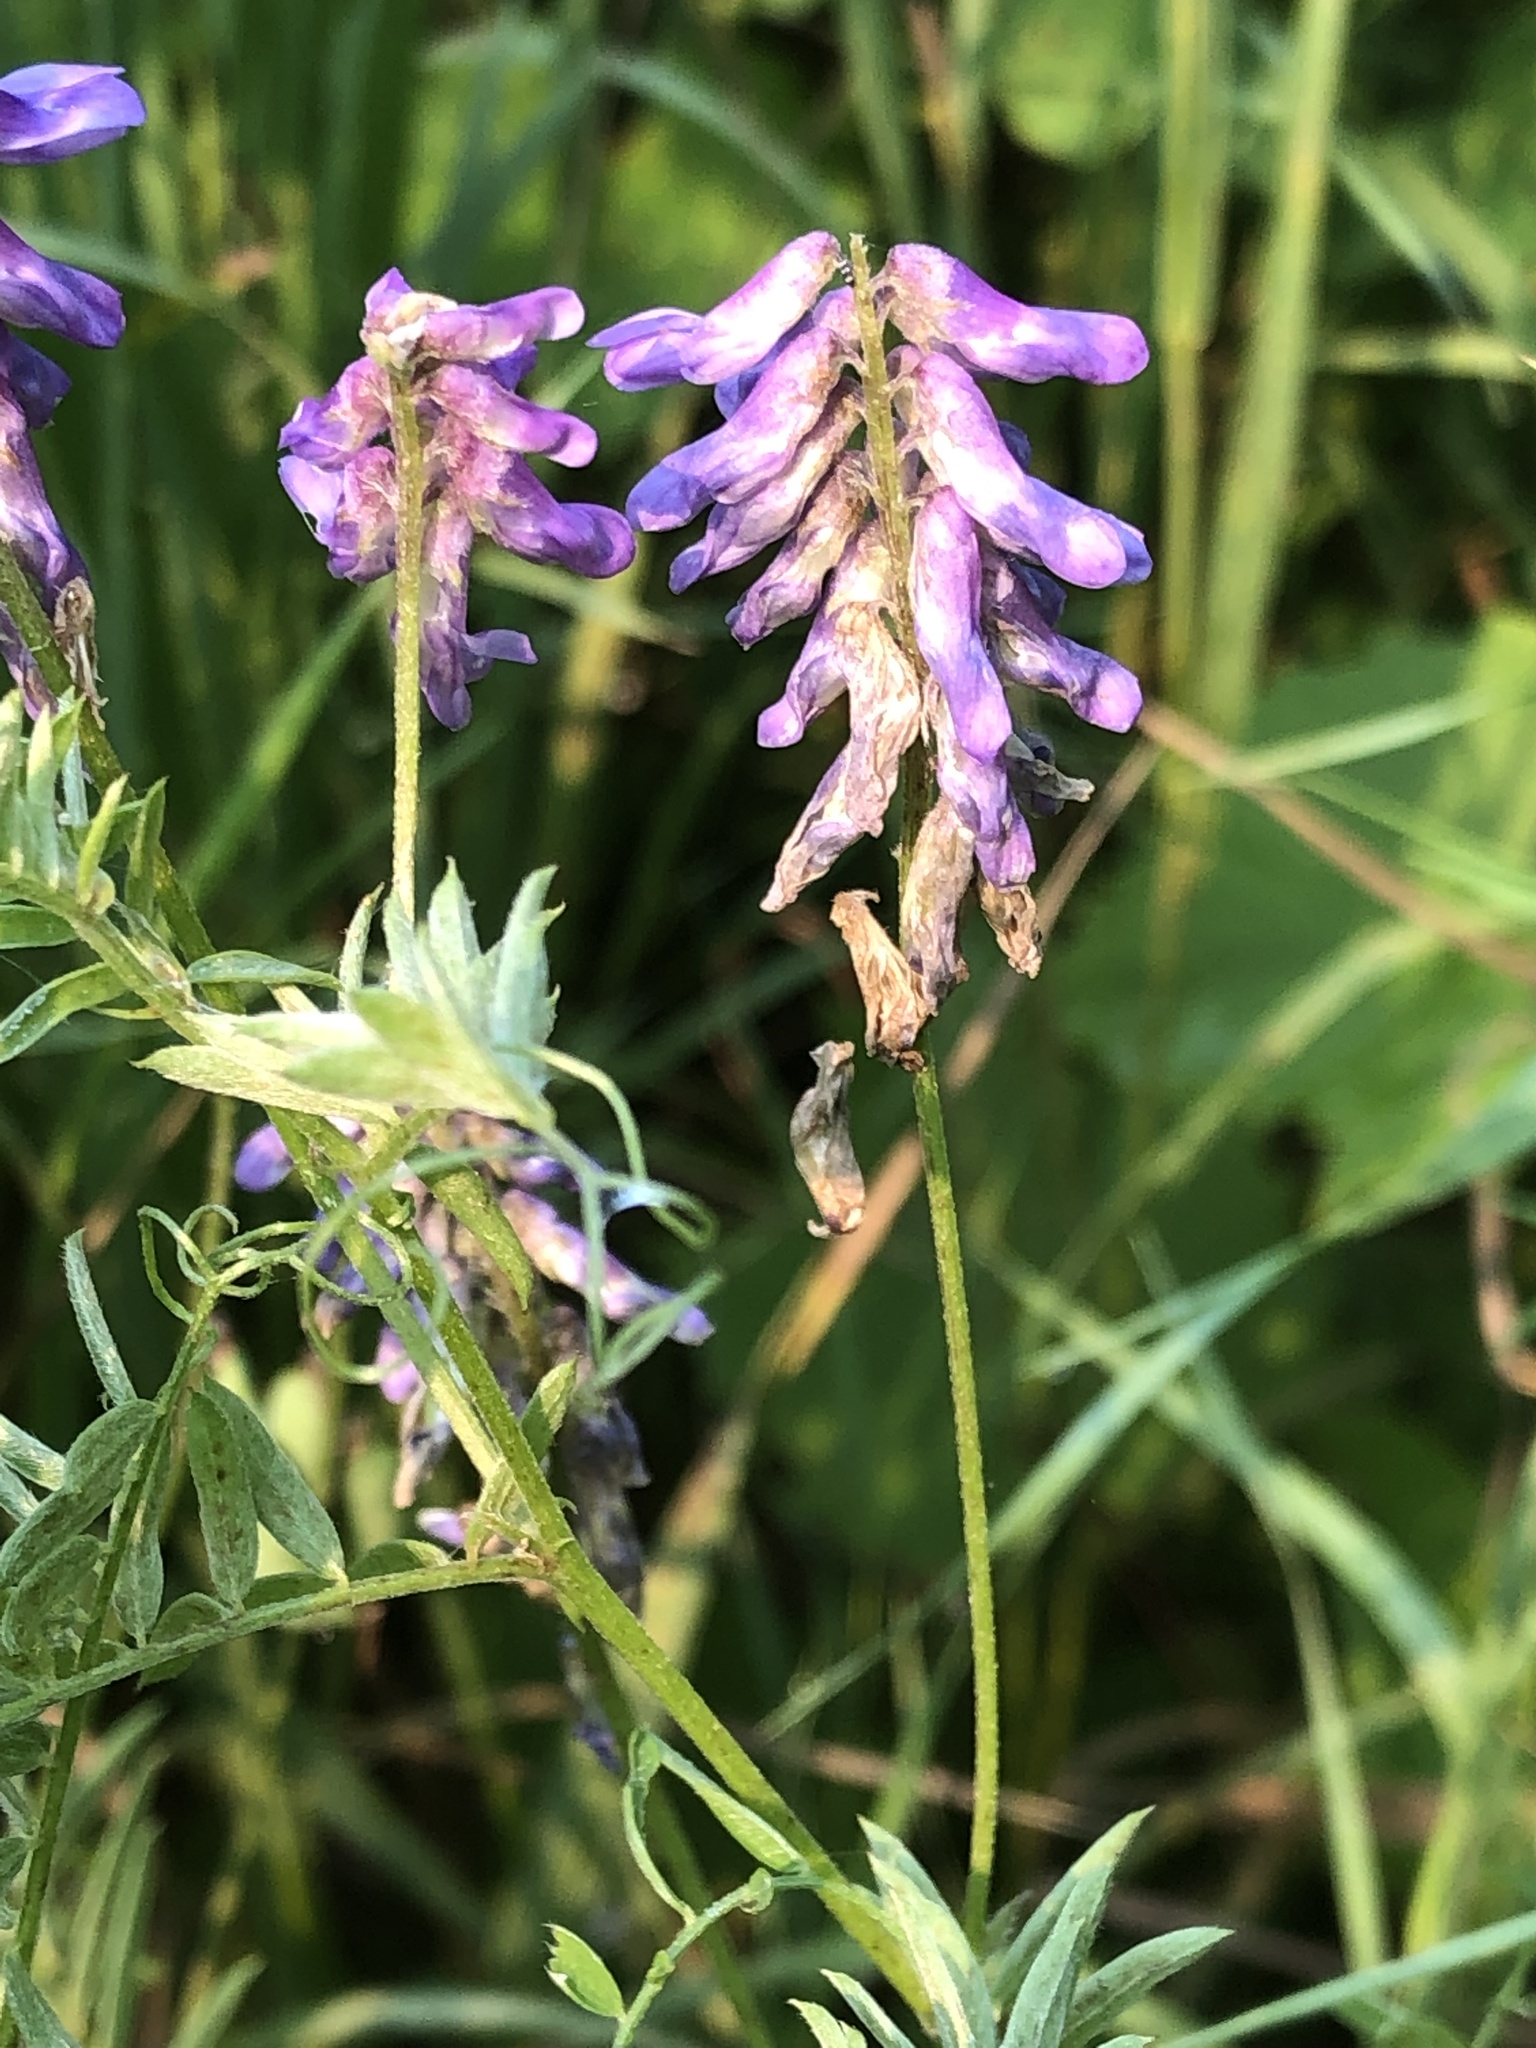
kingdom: Plantae
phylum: Tracheophyta
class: Magnoliopsida
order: Fabales
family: Fabaceae
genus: Vicia
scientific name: Vicia cracca
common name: Bird vetch
